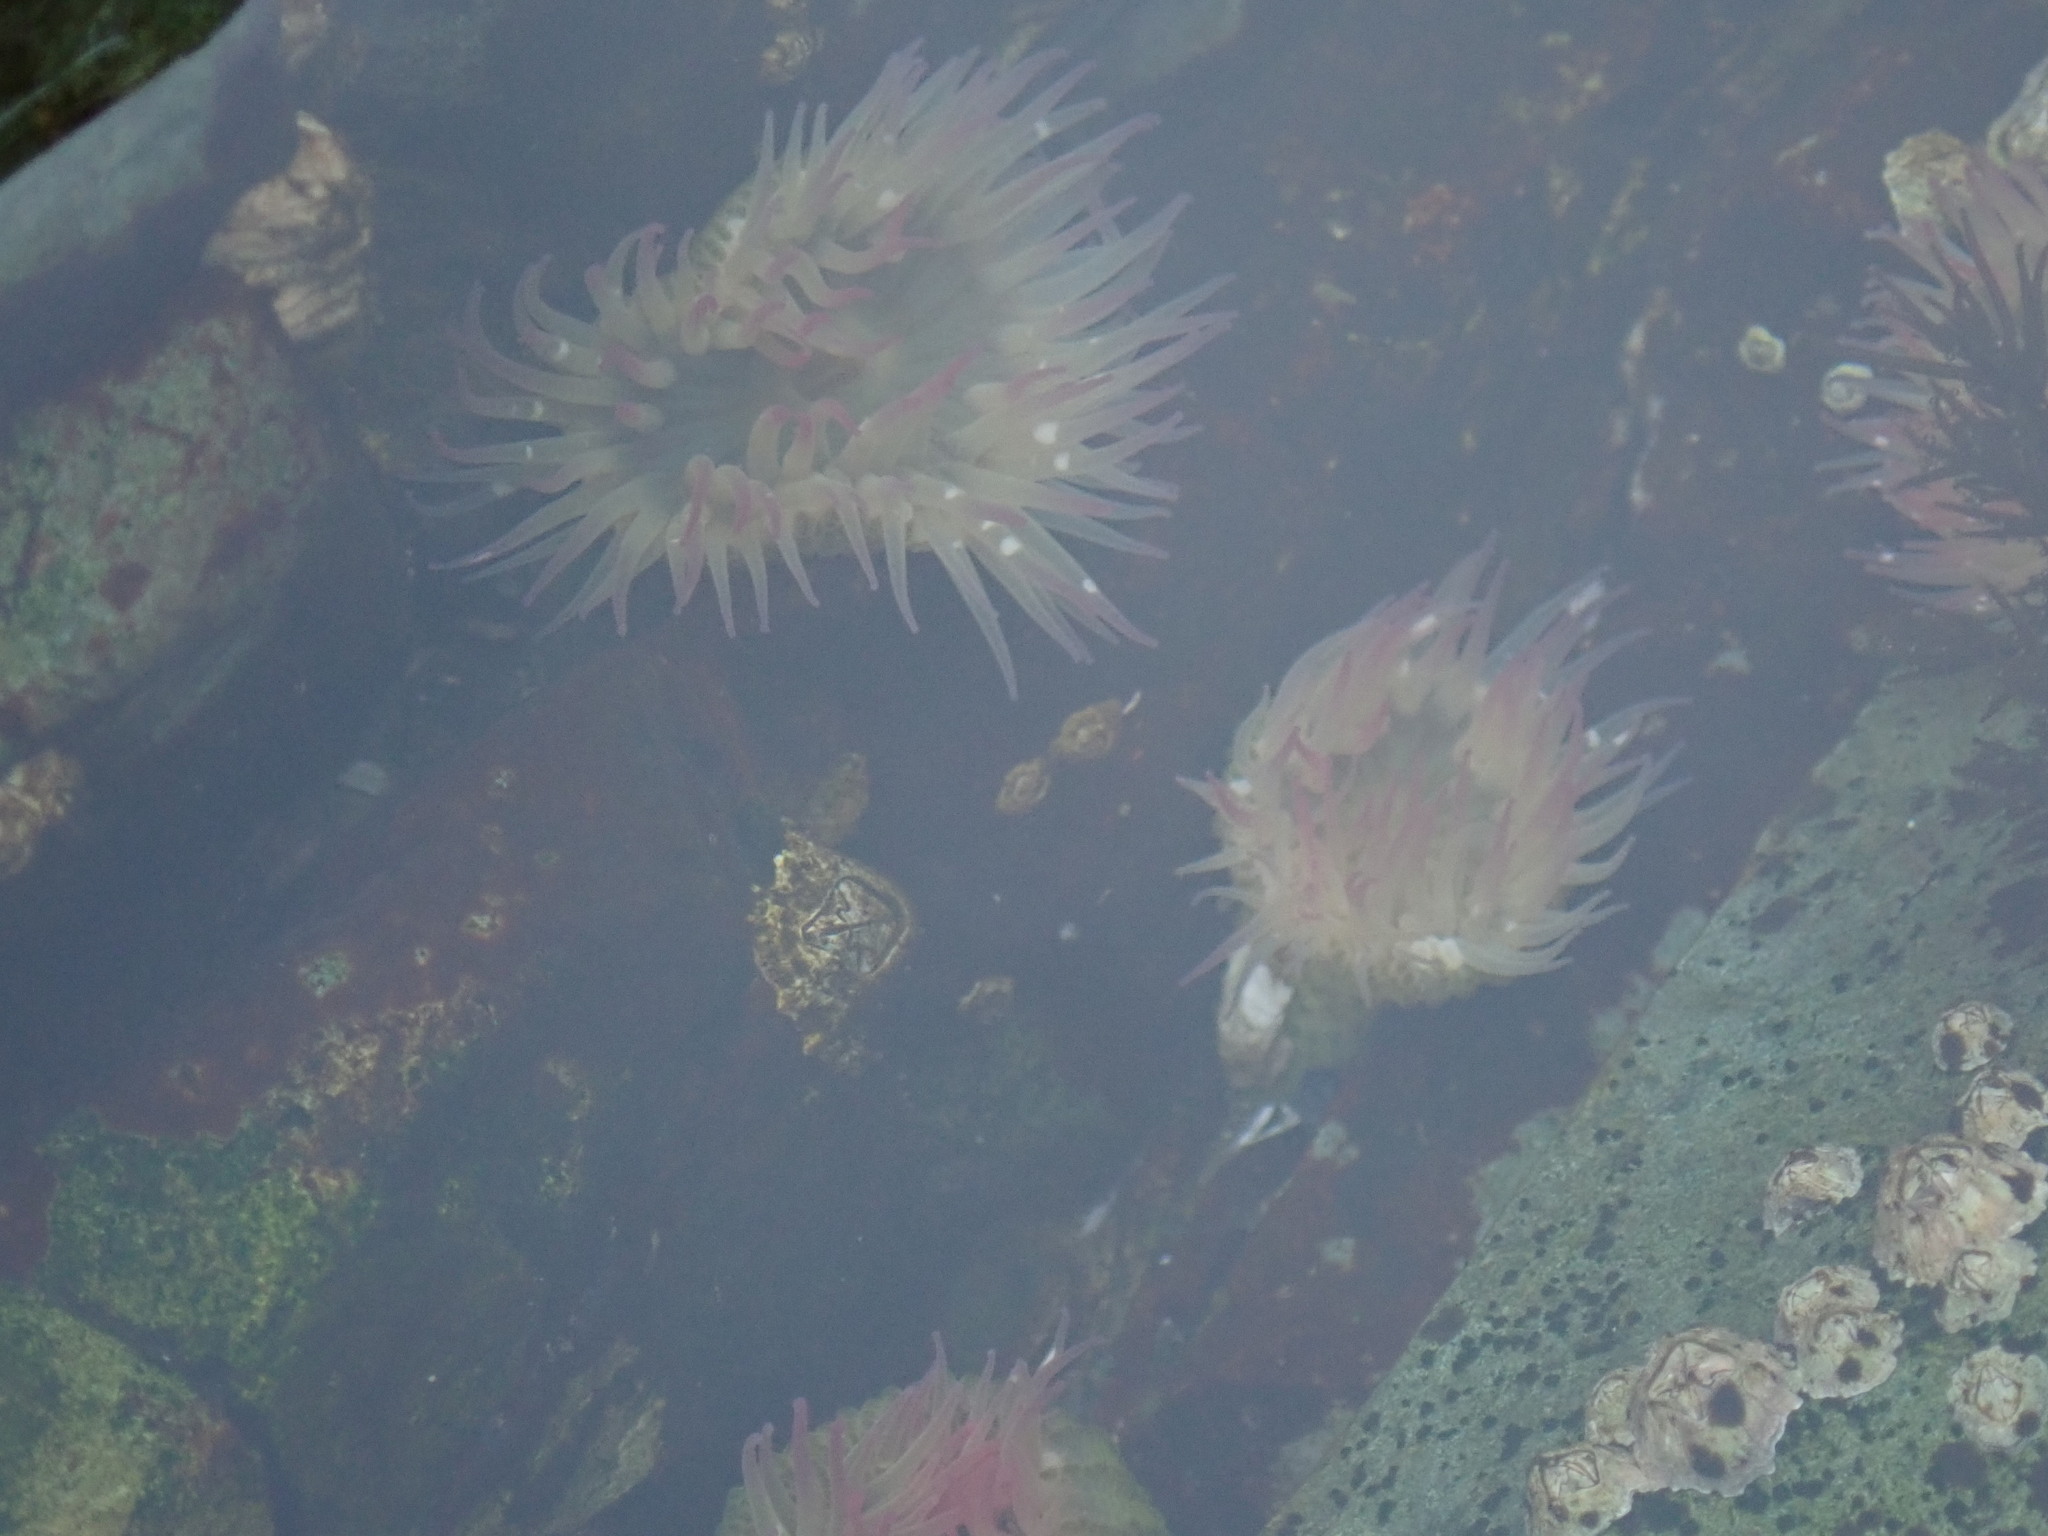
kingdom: Animalia
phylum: Cnidaria
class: Anthozoa
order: Actiniaria
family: Actiniidae
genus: Anthopleura
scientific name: Anthopleura elegantissima
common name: Clonal anemone
